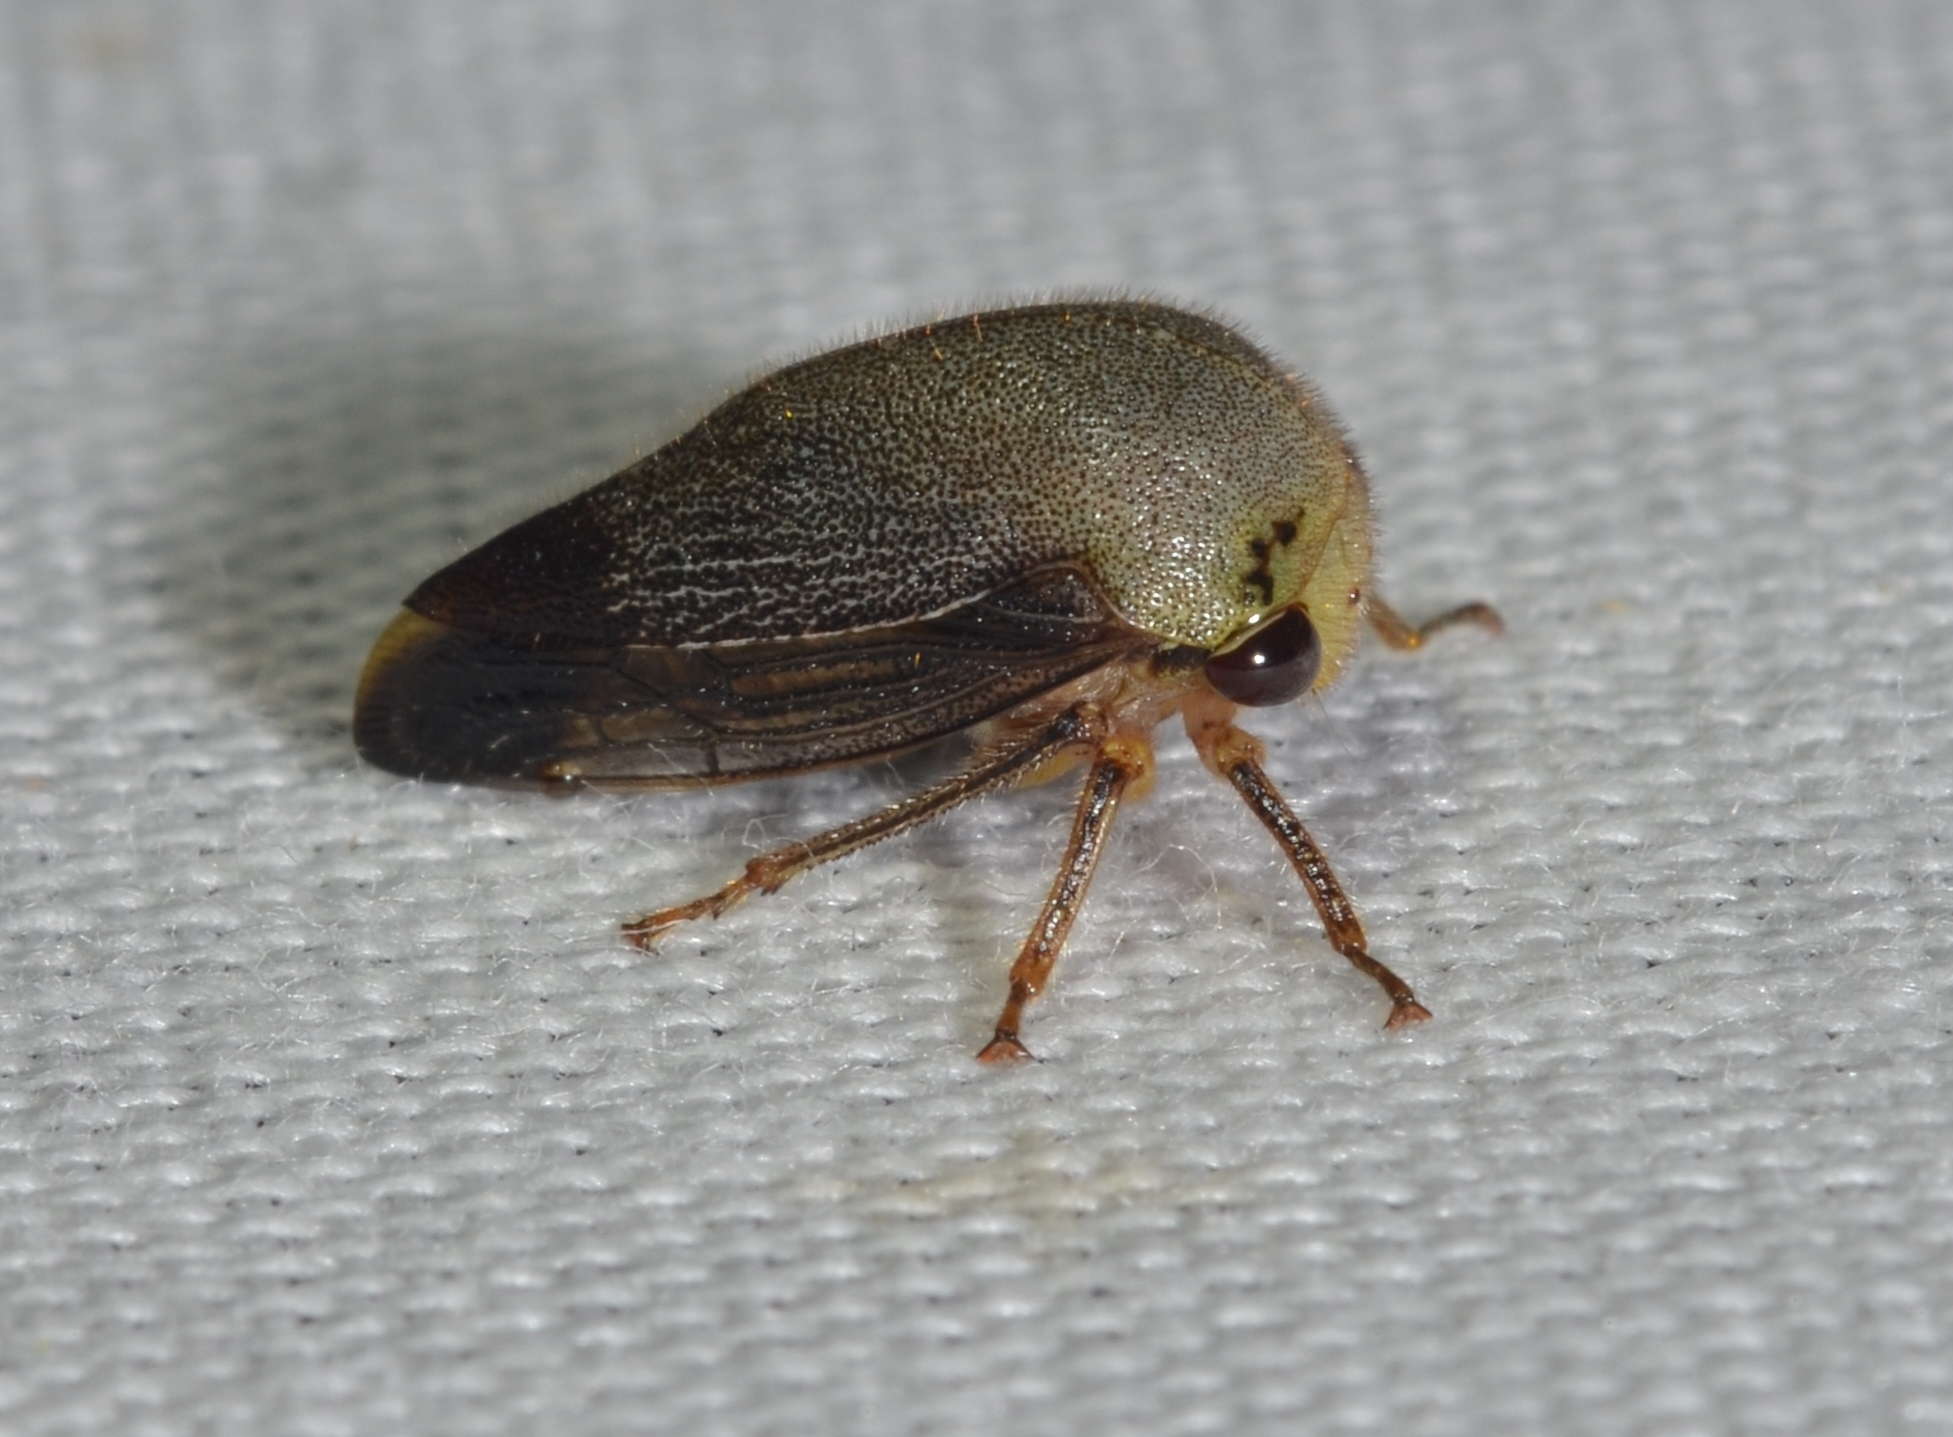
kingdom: Animalia
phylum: Arthropoda
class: Insecta
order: Hemiptera
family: Membracidae
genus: Carynota
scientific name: Carynota mera
